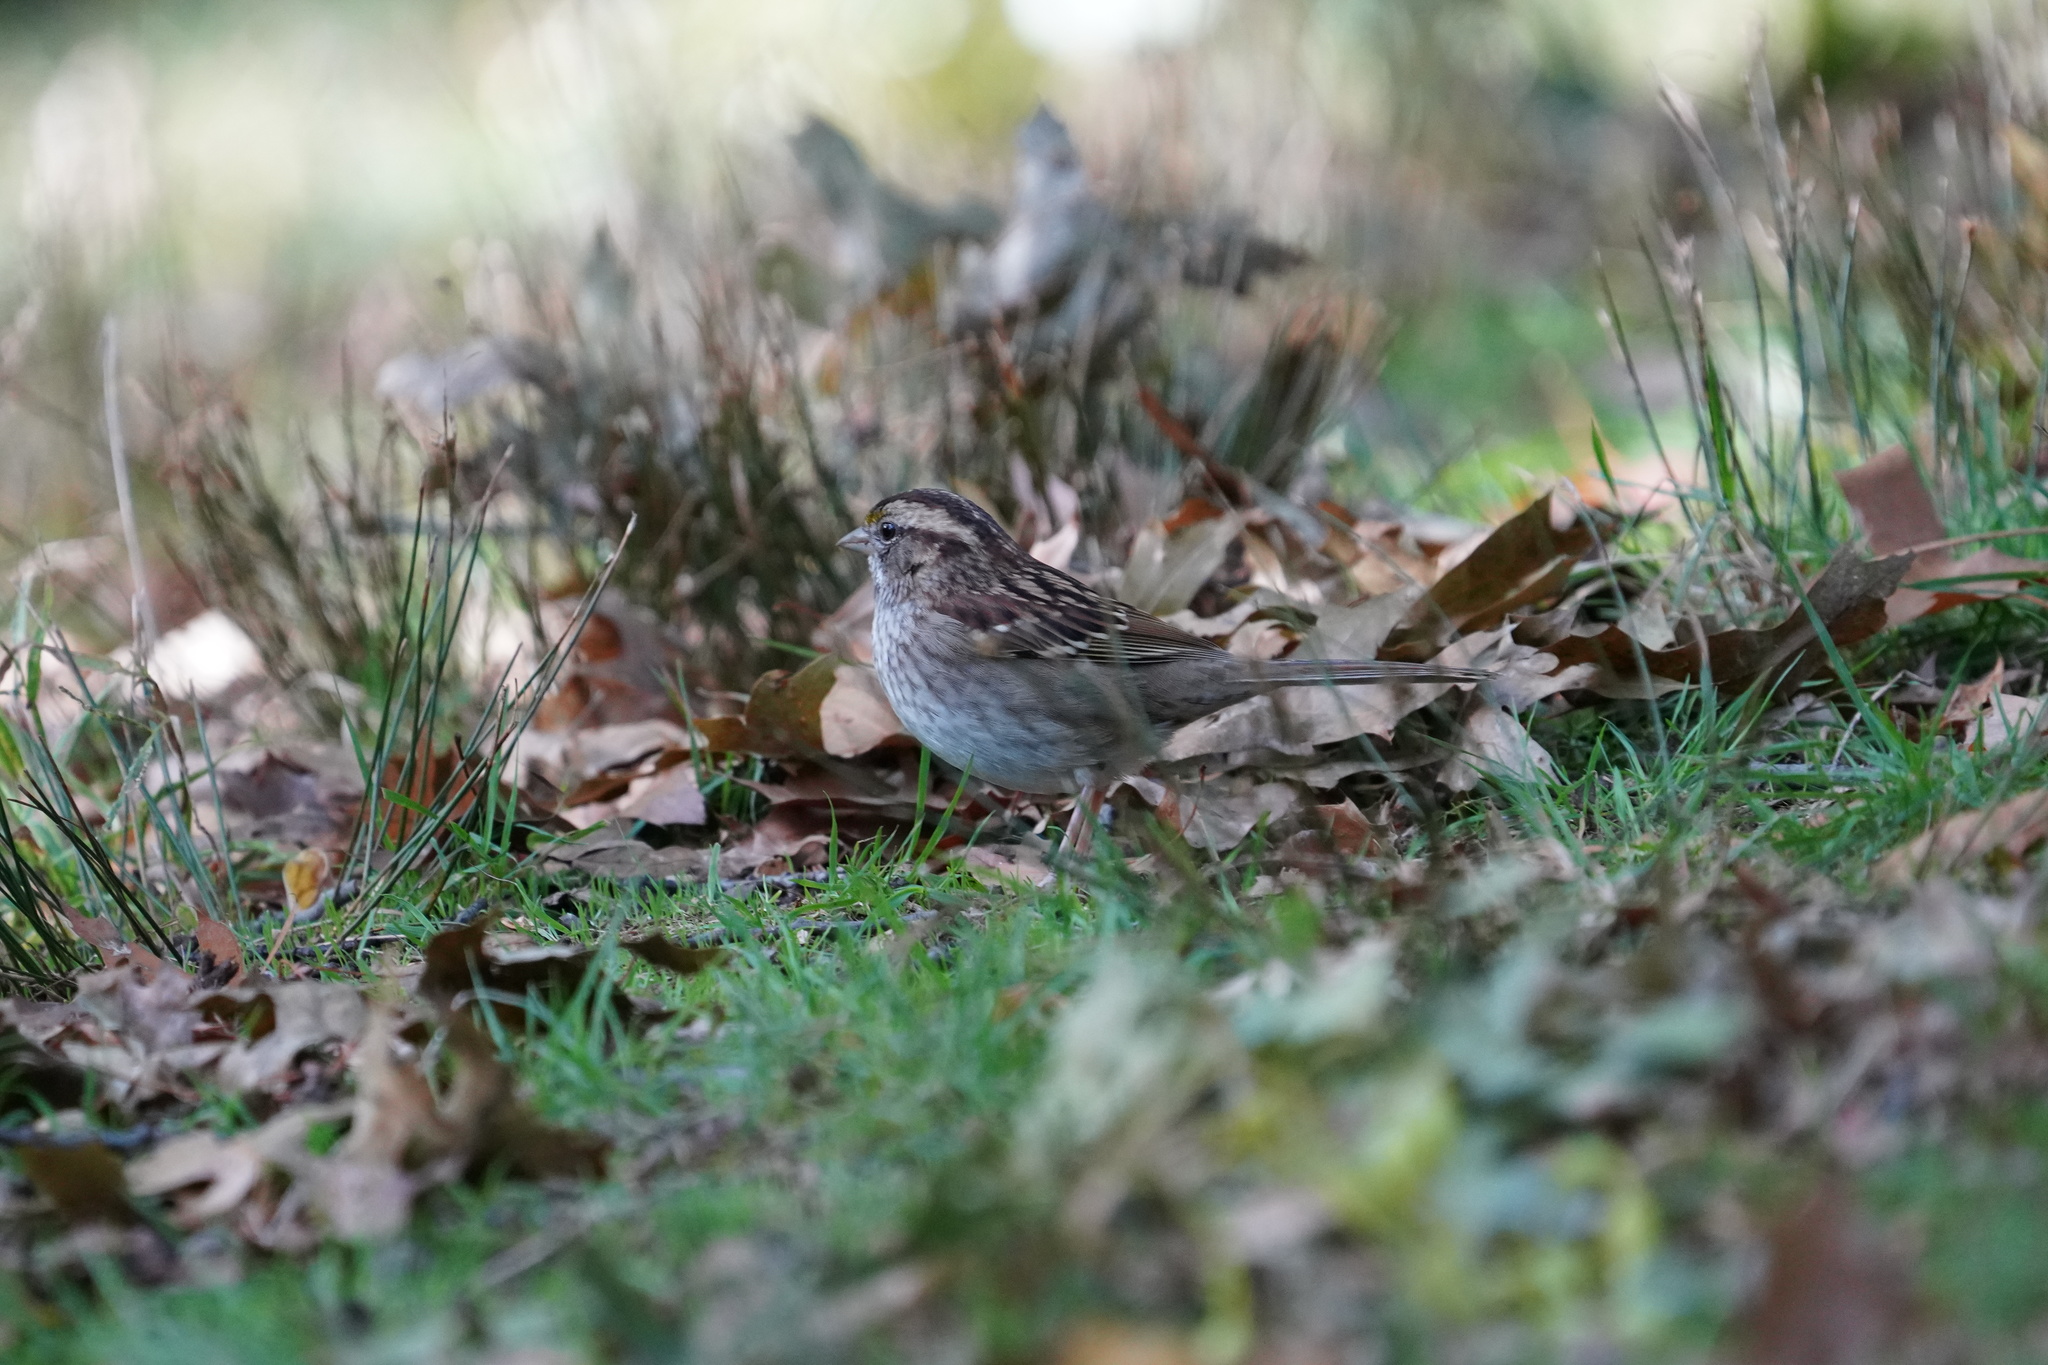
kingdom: Animalia
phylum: Chordata
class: Aves
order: Passeriformes
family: Passerellidae
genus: Zonotrichia
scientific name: Zonotrichia albicollis
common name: White-throated sparrow
